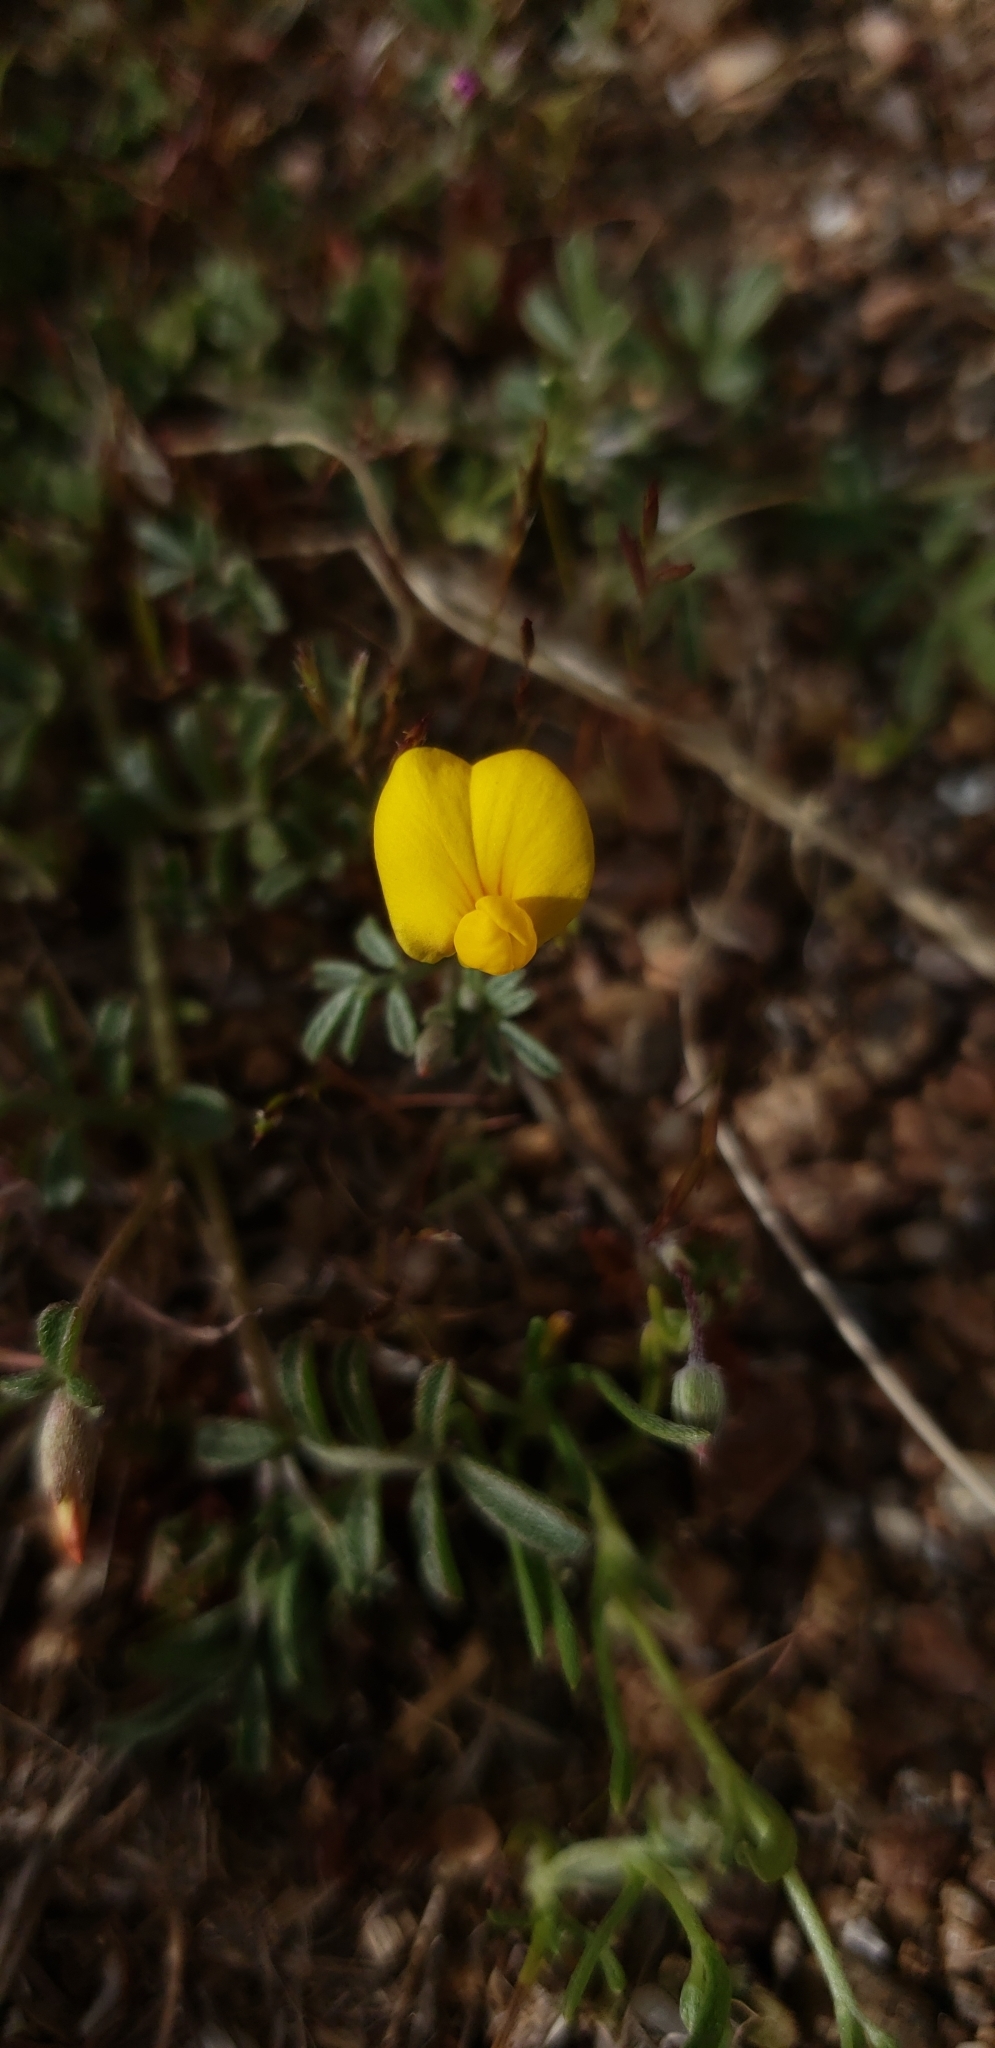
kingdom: Plantae
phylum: Tracheophyta
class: Magnoliopsida
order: Fabales
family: Fabaceae
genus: Acmispon
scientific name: Acmispon strigosus
